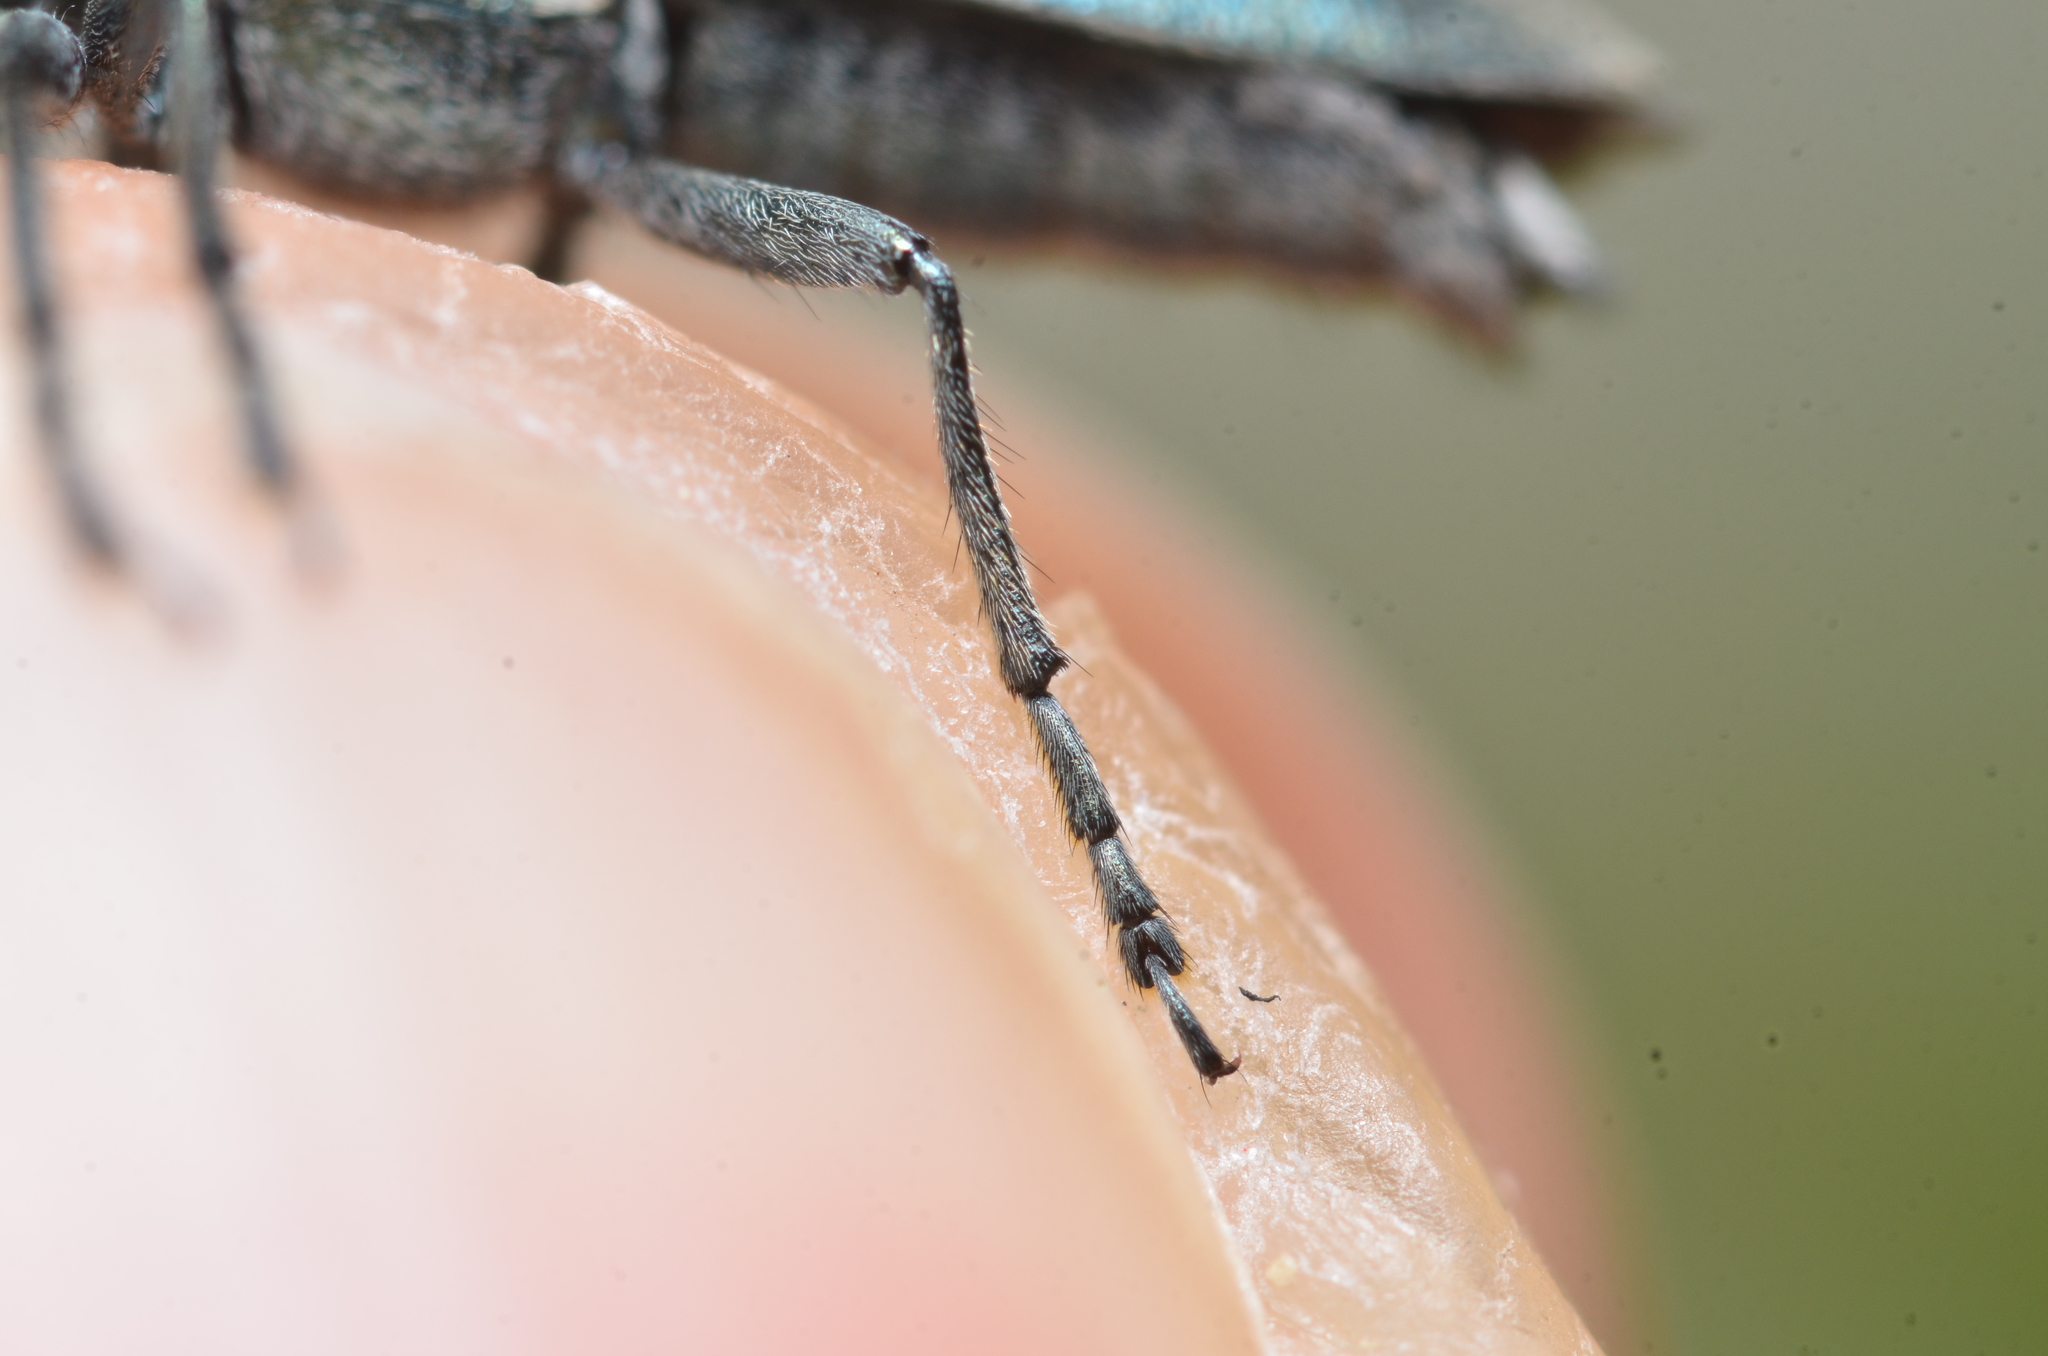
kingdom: Animalia
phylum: Arthropoda
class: Insecta
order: Coleoptera
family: Cerambycidae
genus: Agapanthia
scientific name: Agapanthia intermedia
